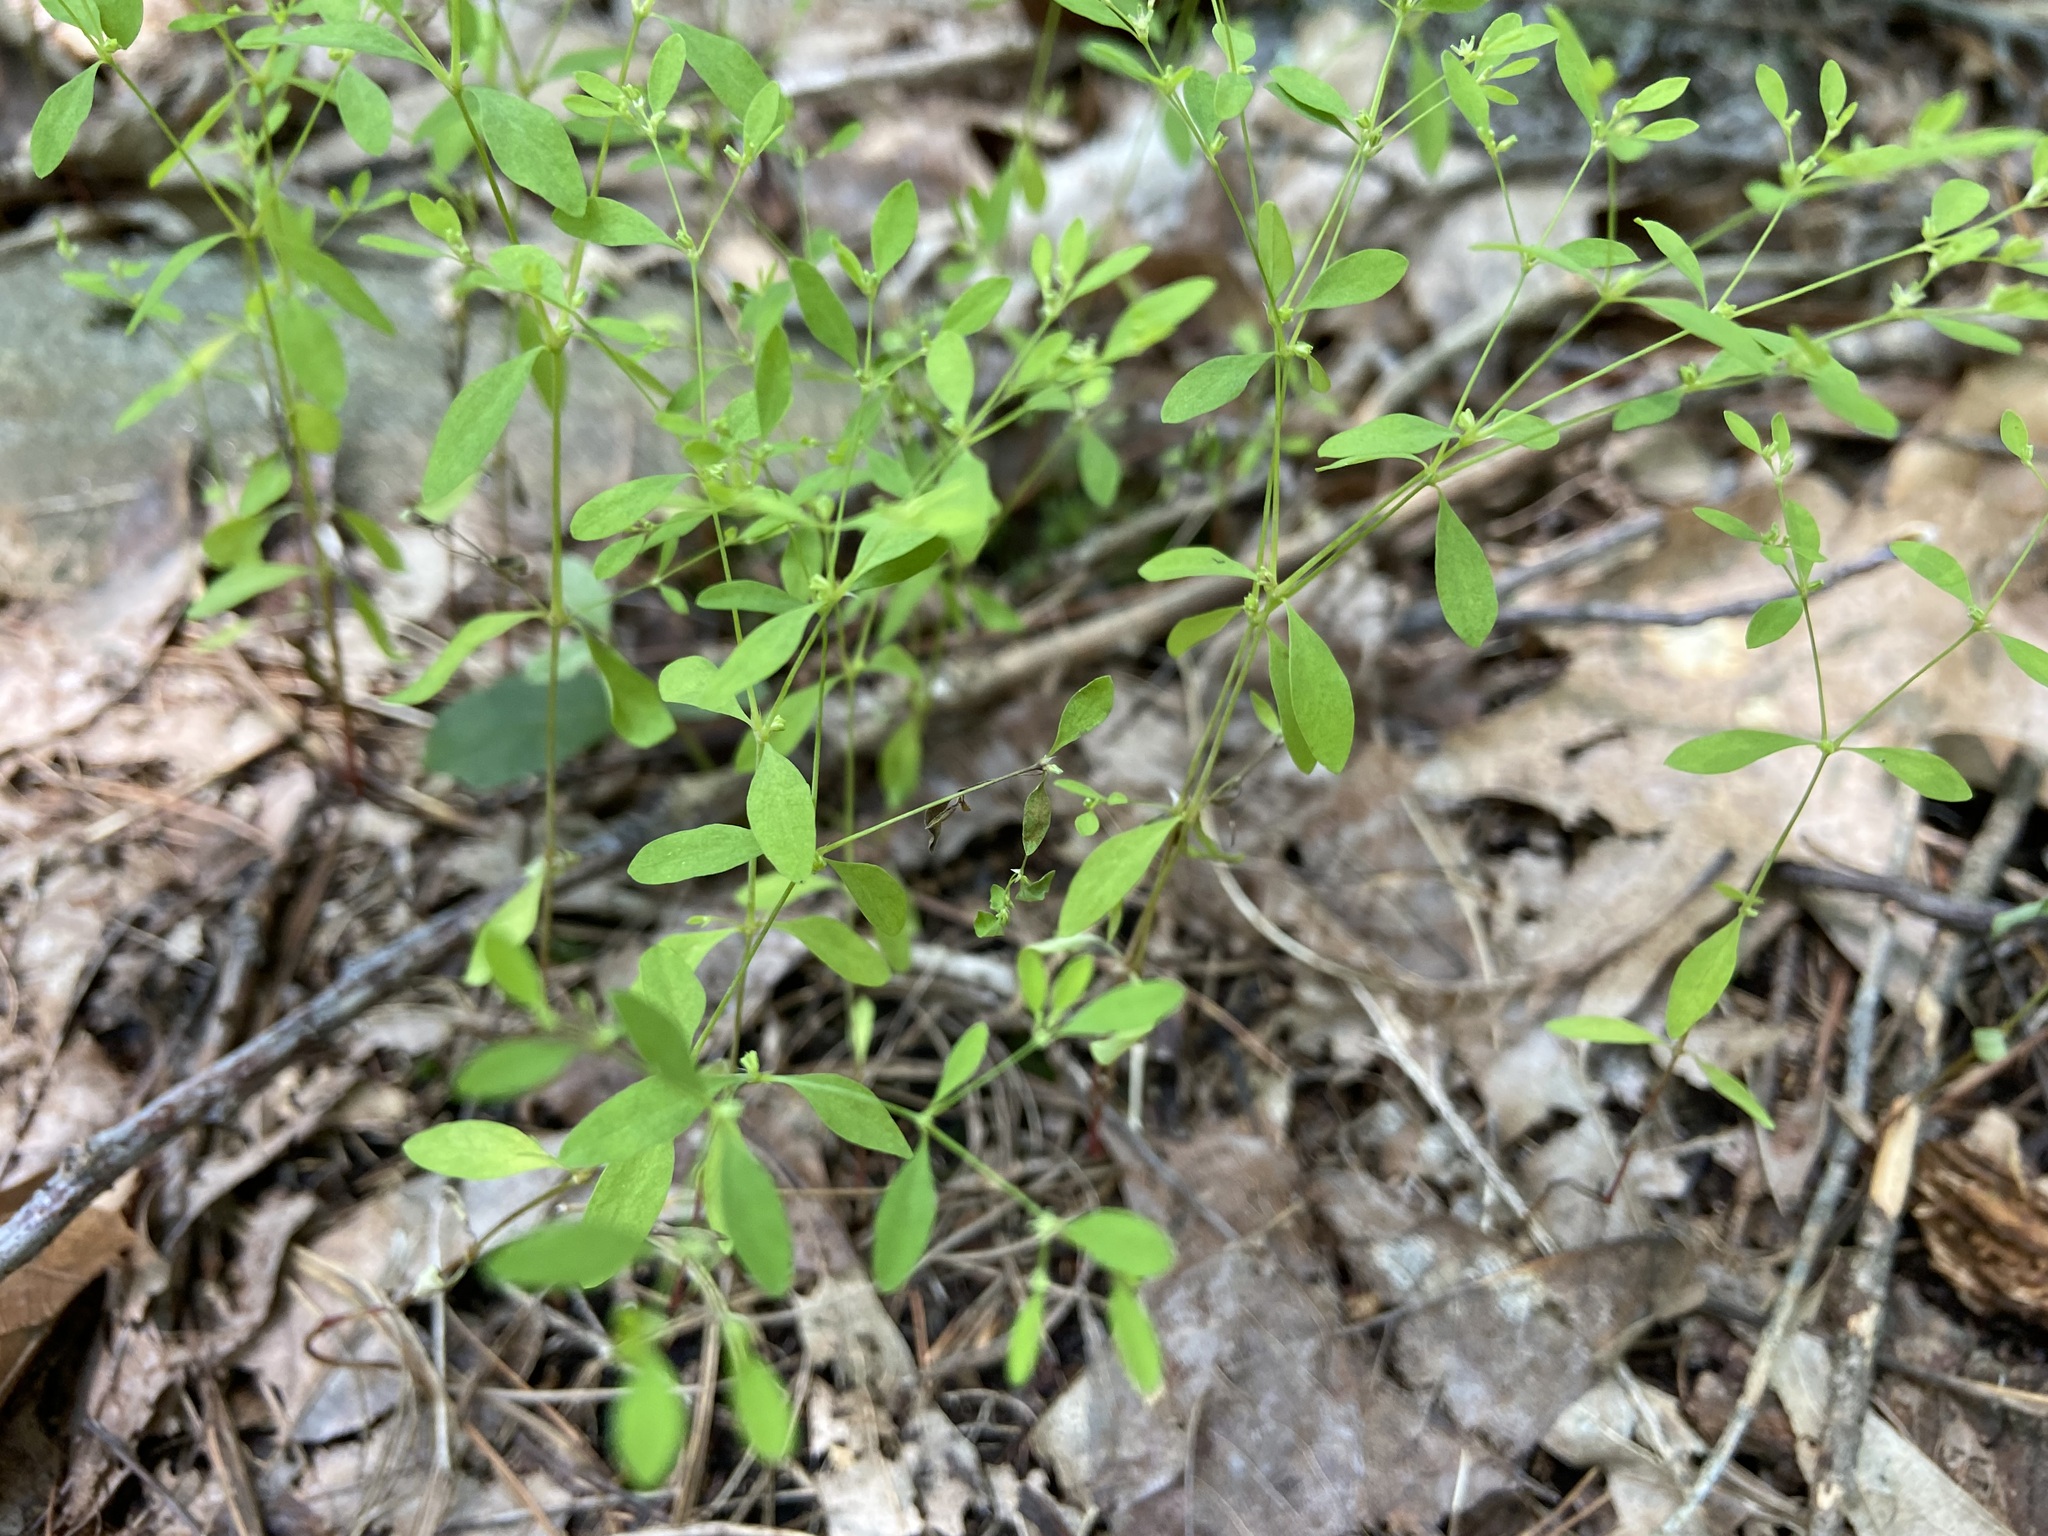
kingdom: Plantae
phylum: Tracheophyta
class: Magnoliopsida
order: Caryophyllales
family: Caryophyllaceae
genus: Paronychia
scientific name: Paronychia canadensis
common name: Canada forked nailwort
